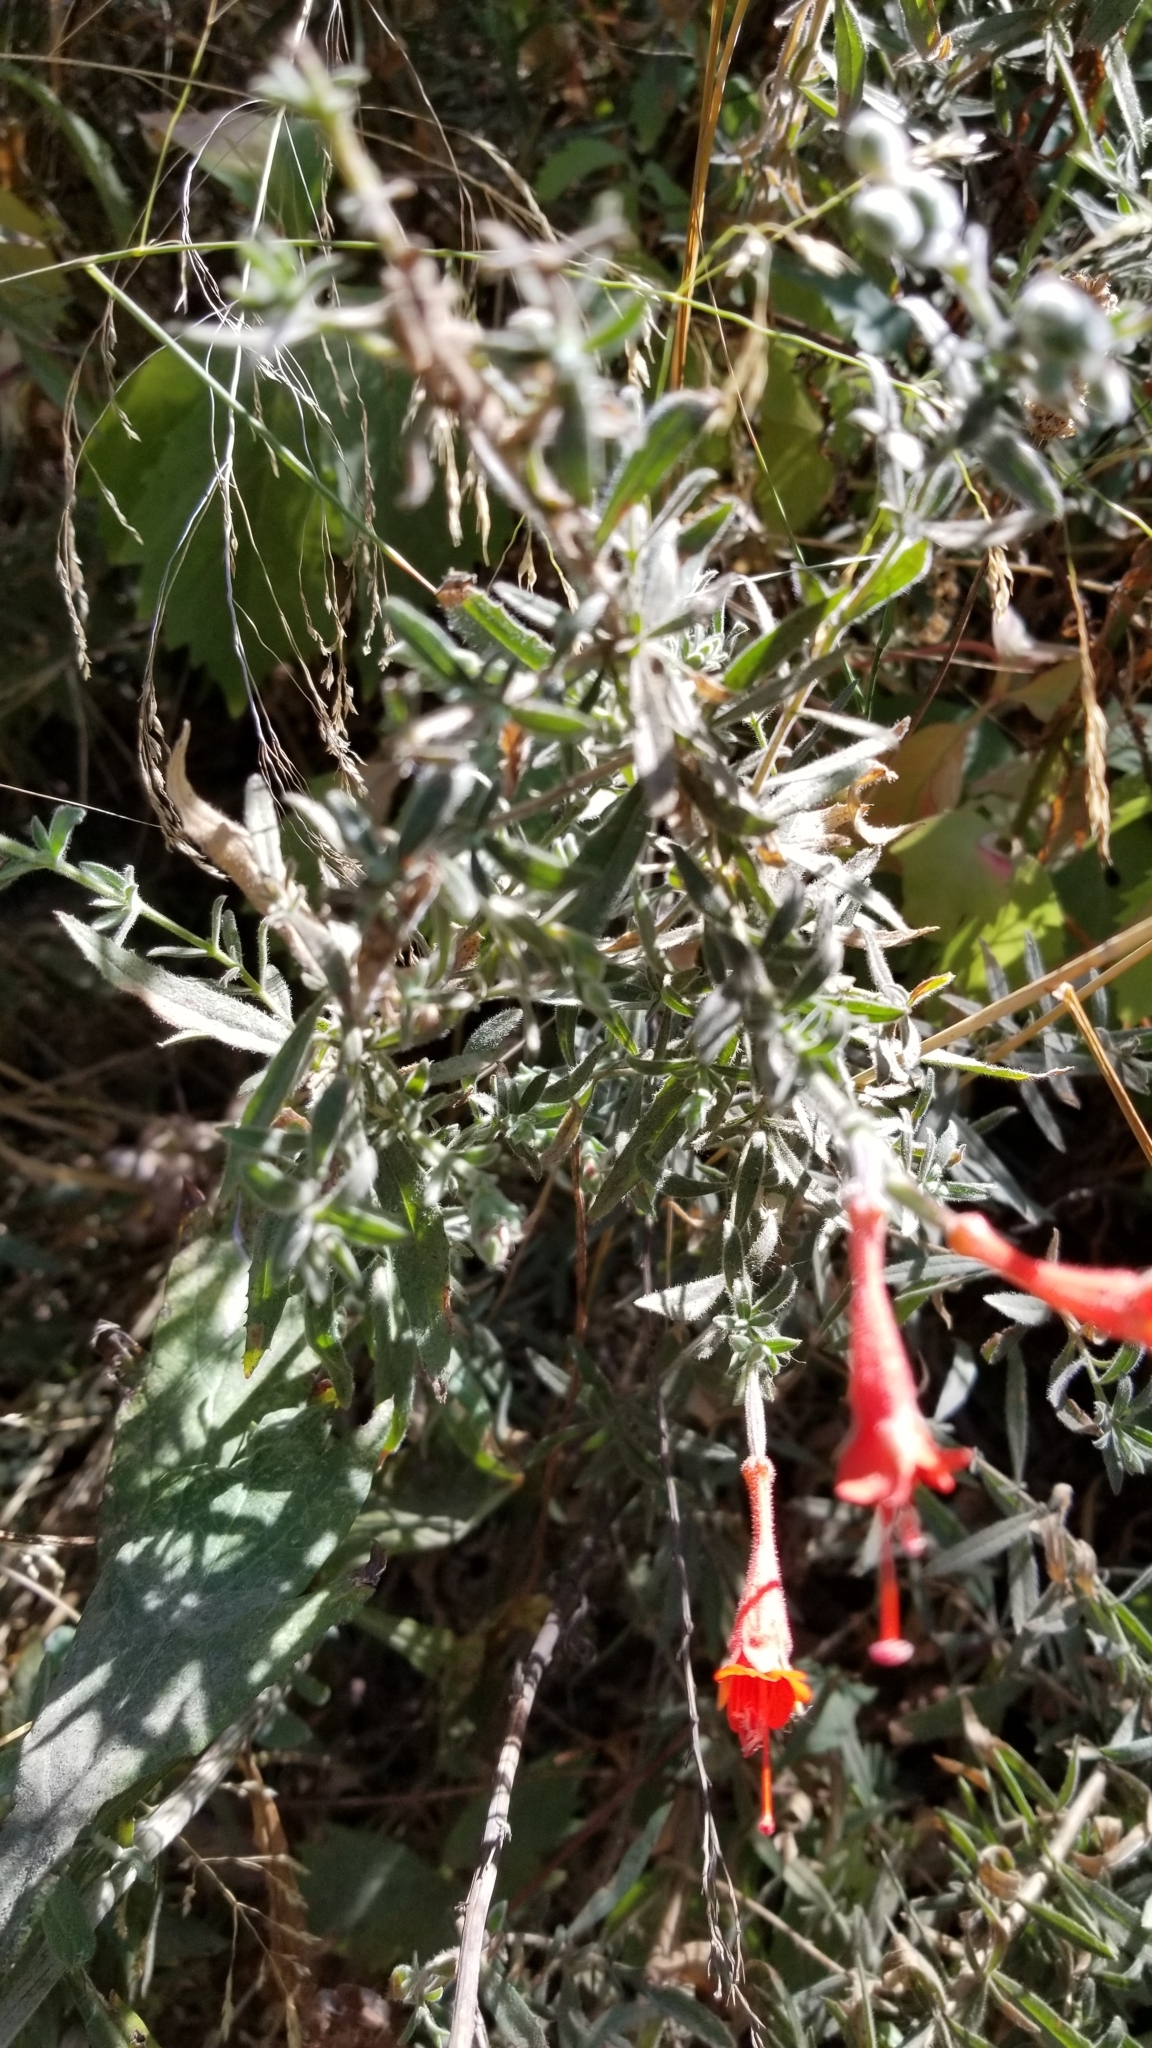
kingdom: Plantae
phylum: Tracheophyta
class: Magnoliopsida
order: Myrtales
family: Onagraceae
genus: Epilobium
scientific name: Epilobium canum
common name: California-fuchsia
